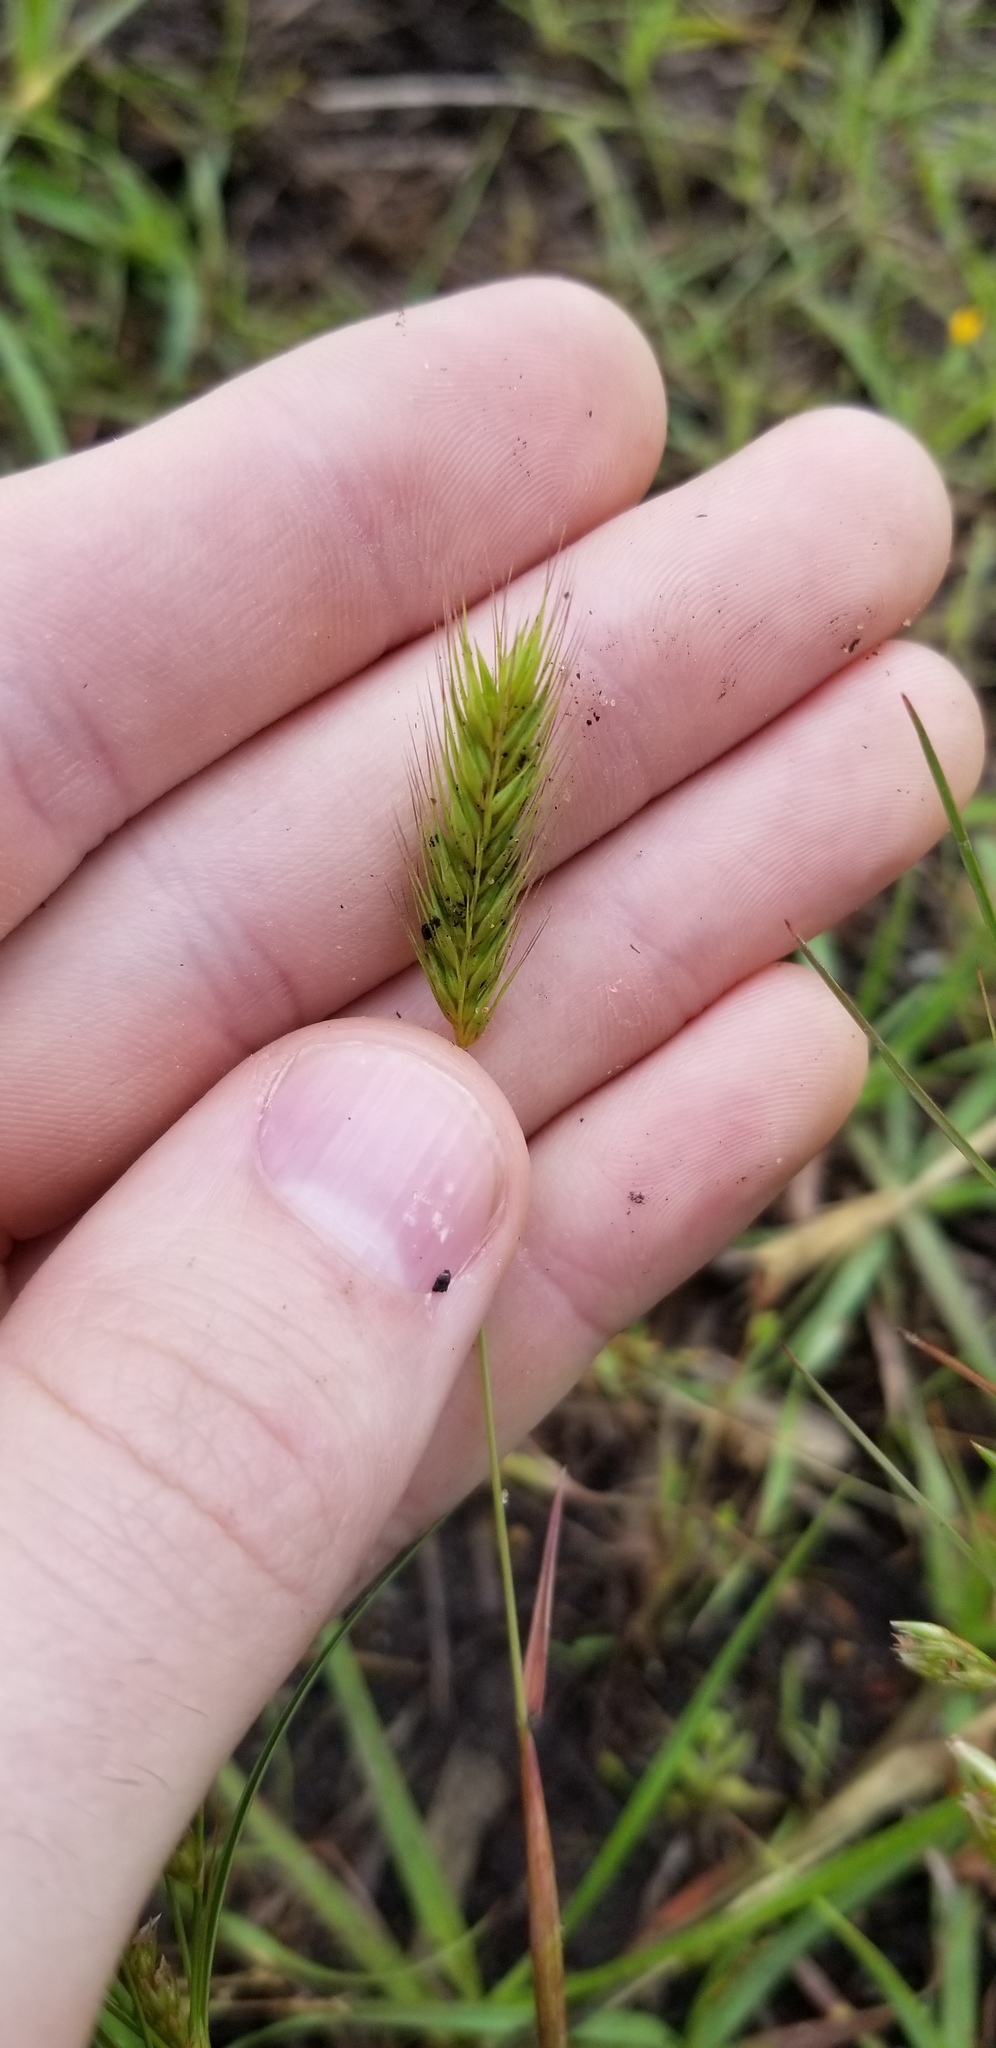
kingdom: Plantae
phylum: Tracheophyta
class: Liliopsida
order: Poales
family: Poaceae
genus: Hordeum
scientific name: Hordeum pusillum
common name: Little barley
